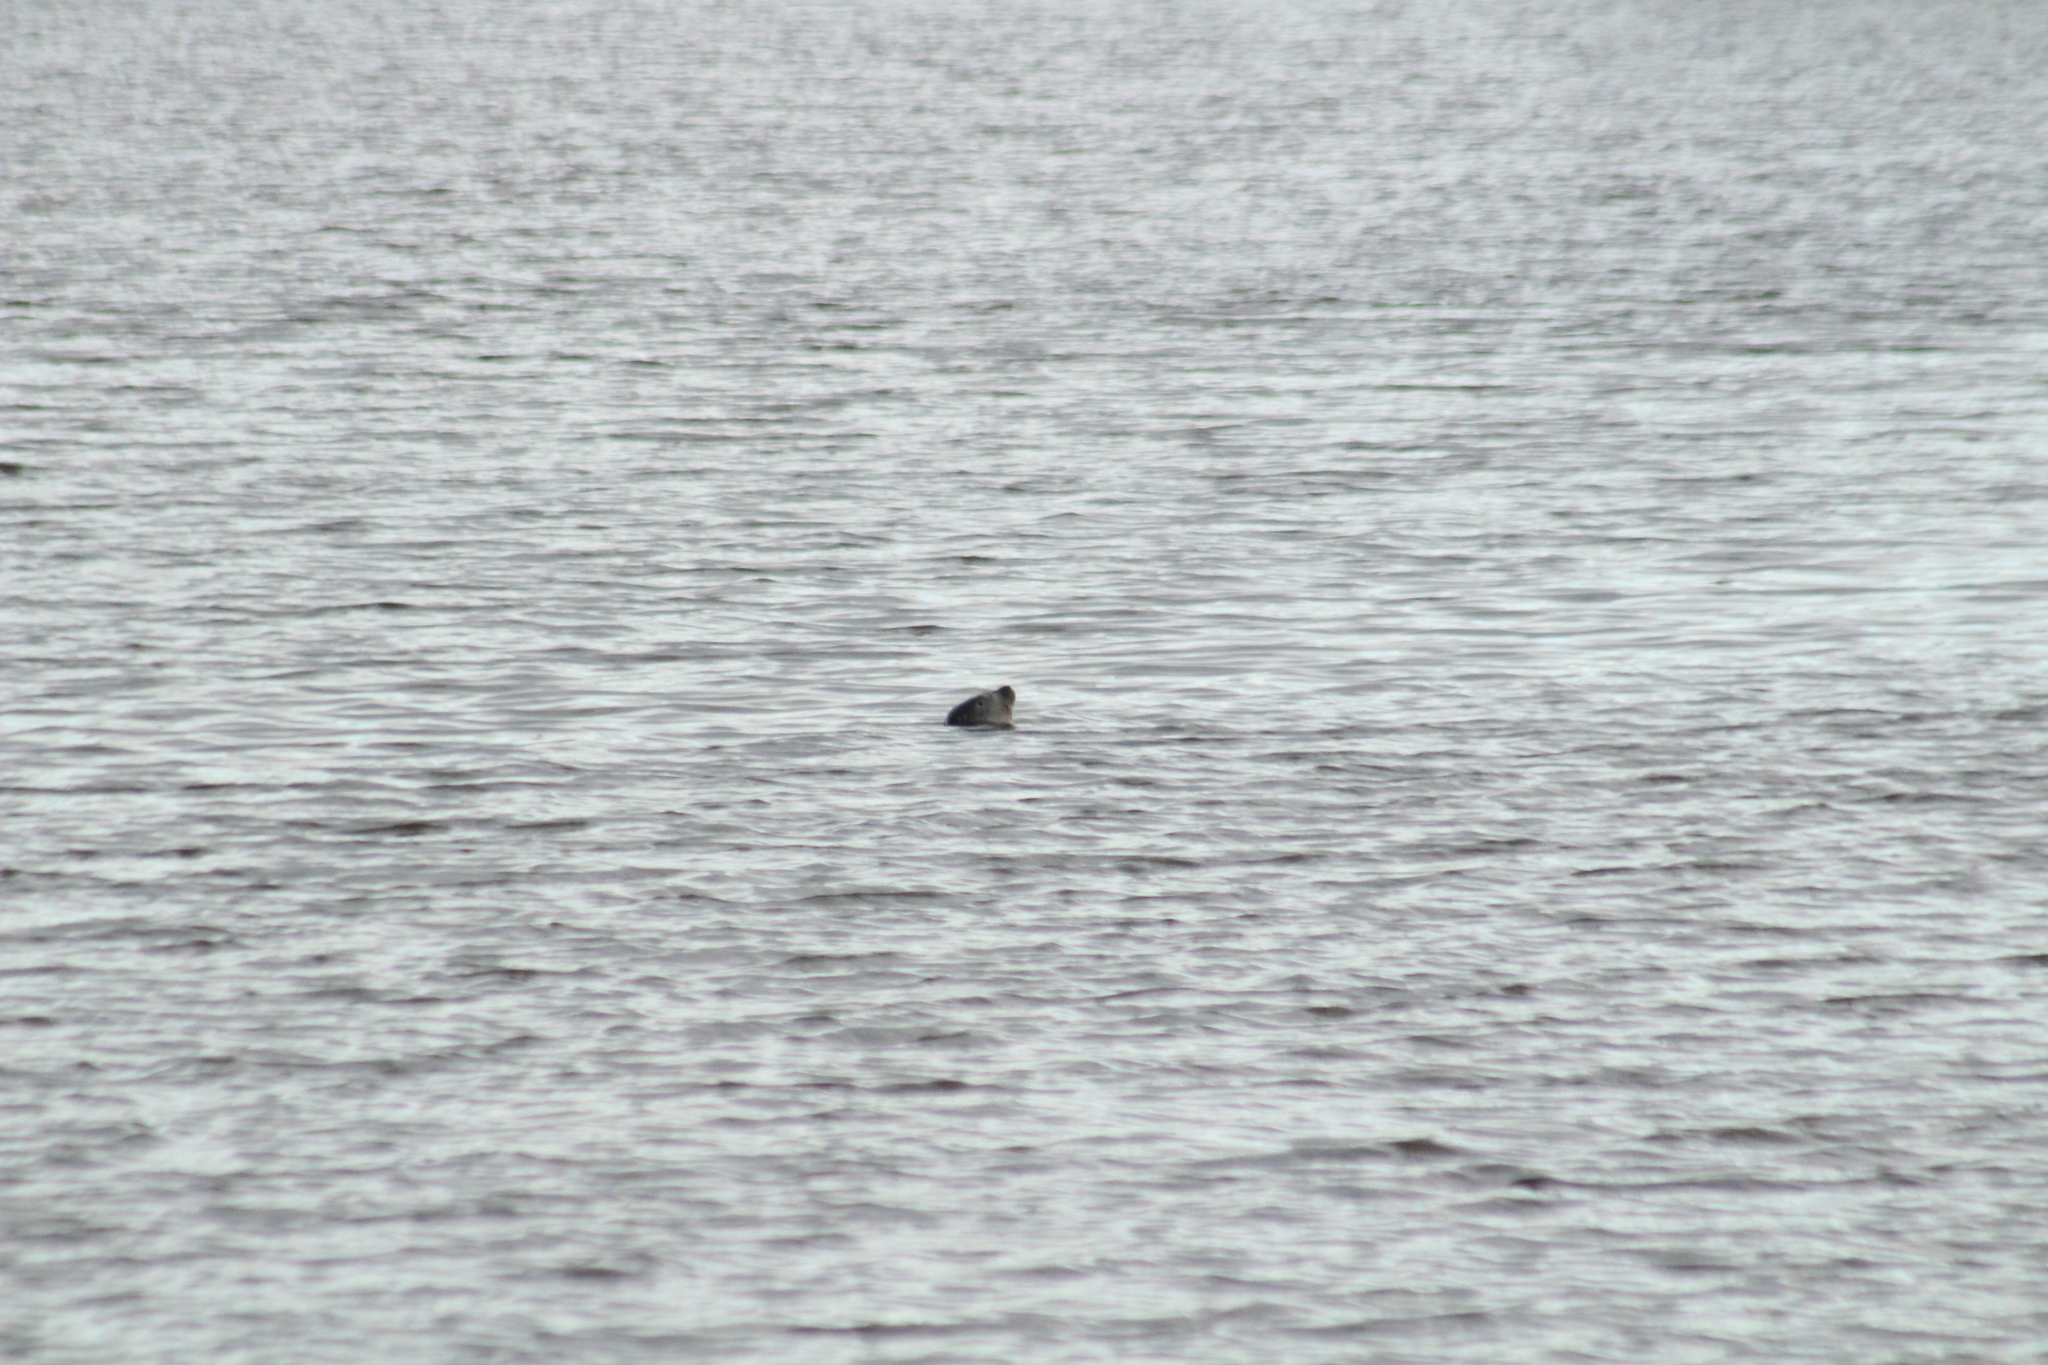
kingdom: Animalia
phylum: Chordata
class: Mammalia
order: Carnivora
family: Phocidae
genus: Phoca
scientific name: Phoca vitulina
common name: Harbor seal
